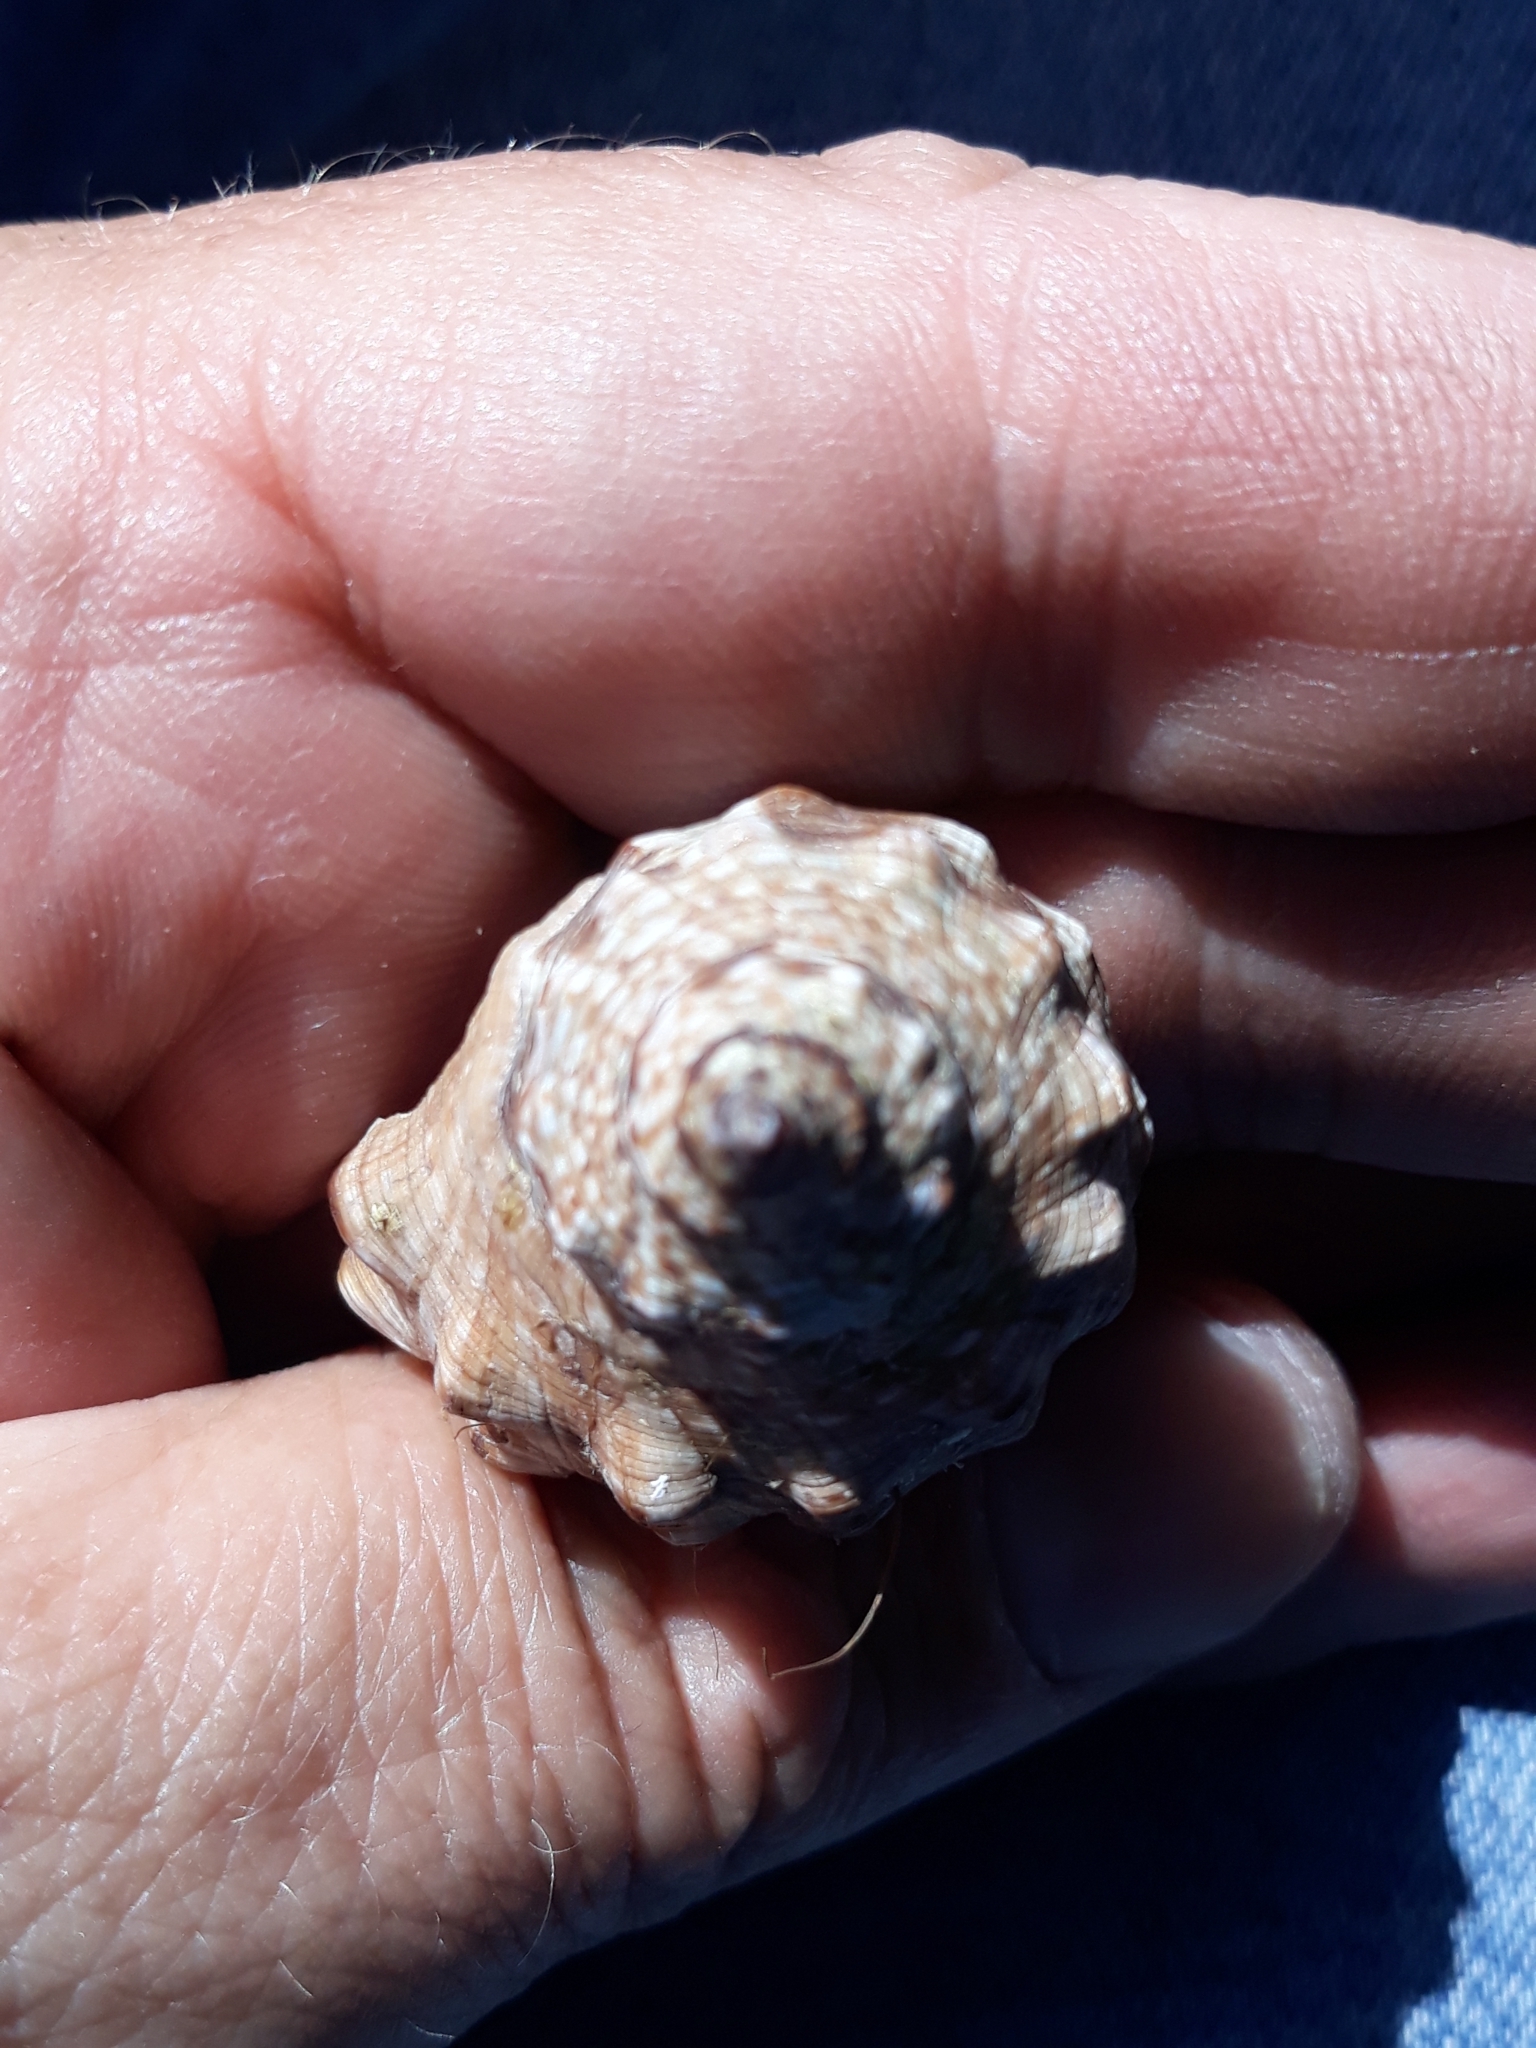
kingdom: Animalia
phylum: Mollusca
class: Gastropoda
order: Neogastropoda
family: Muricidae
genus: Stramonita
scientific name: Stramonita haemastoma
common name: Florida dog winkle
